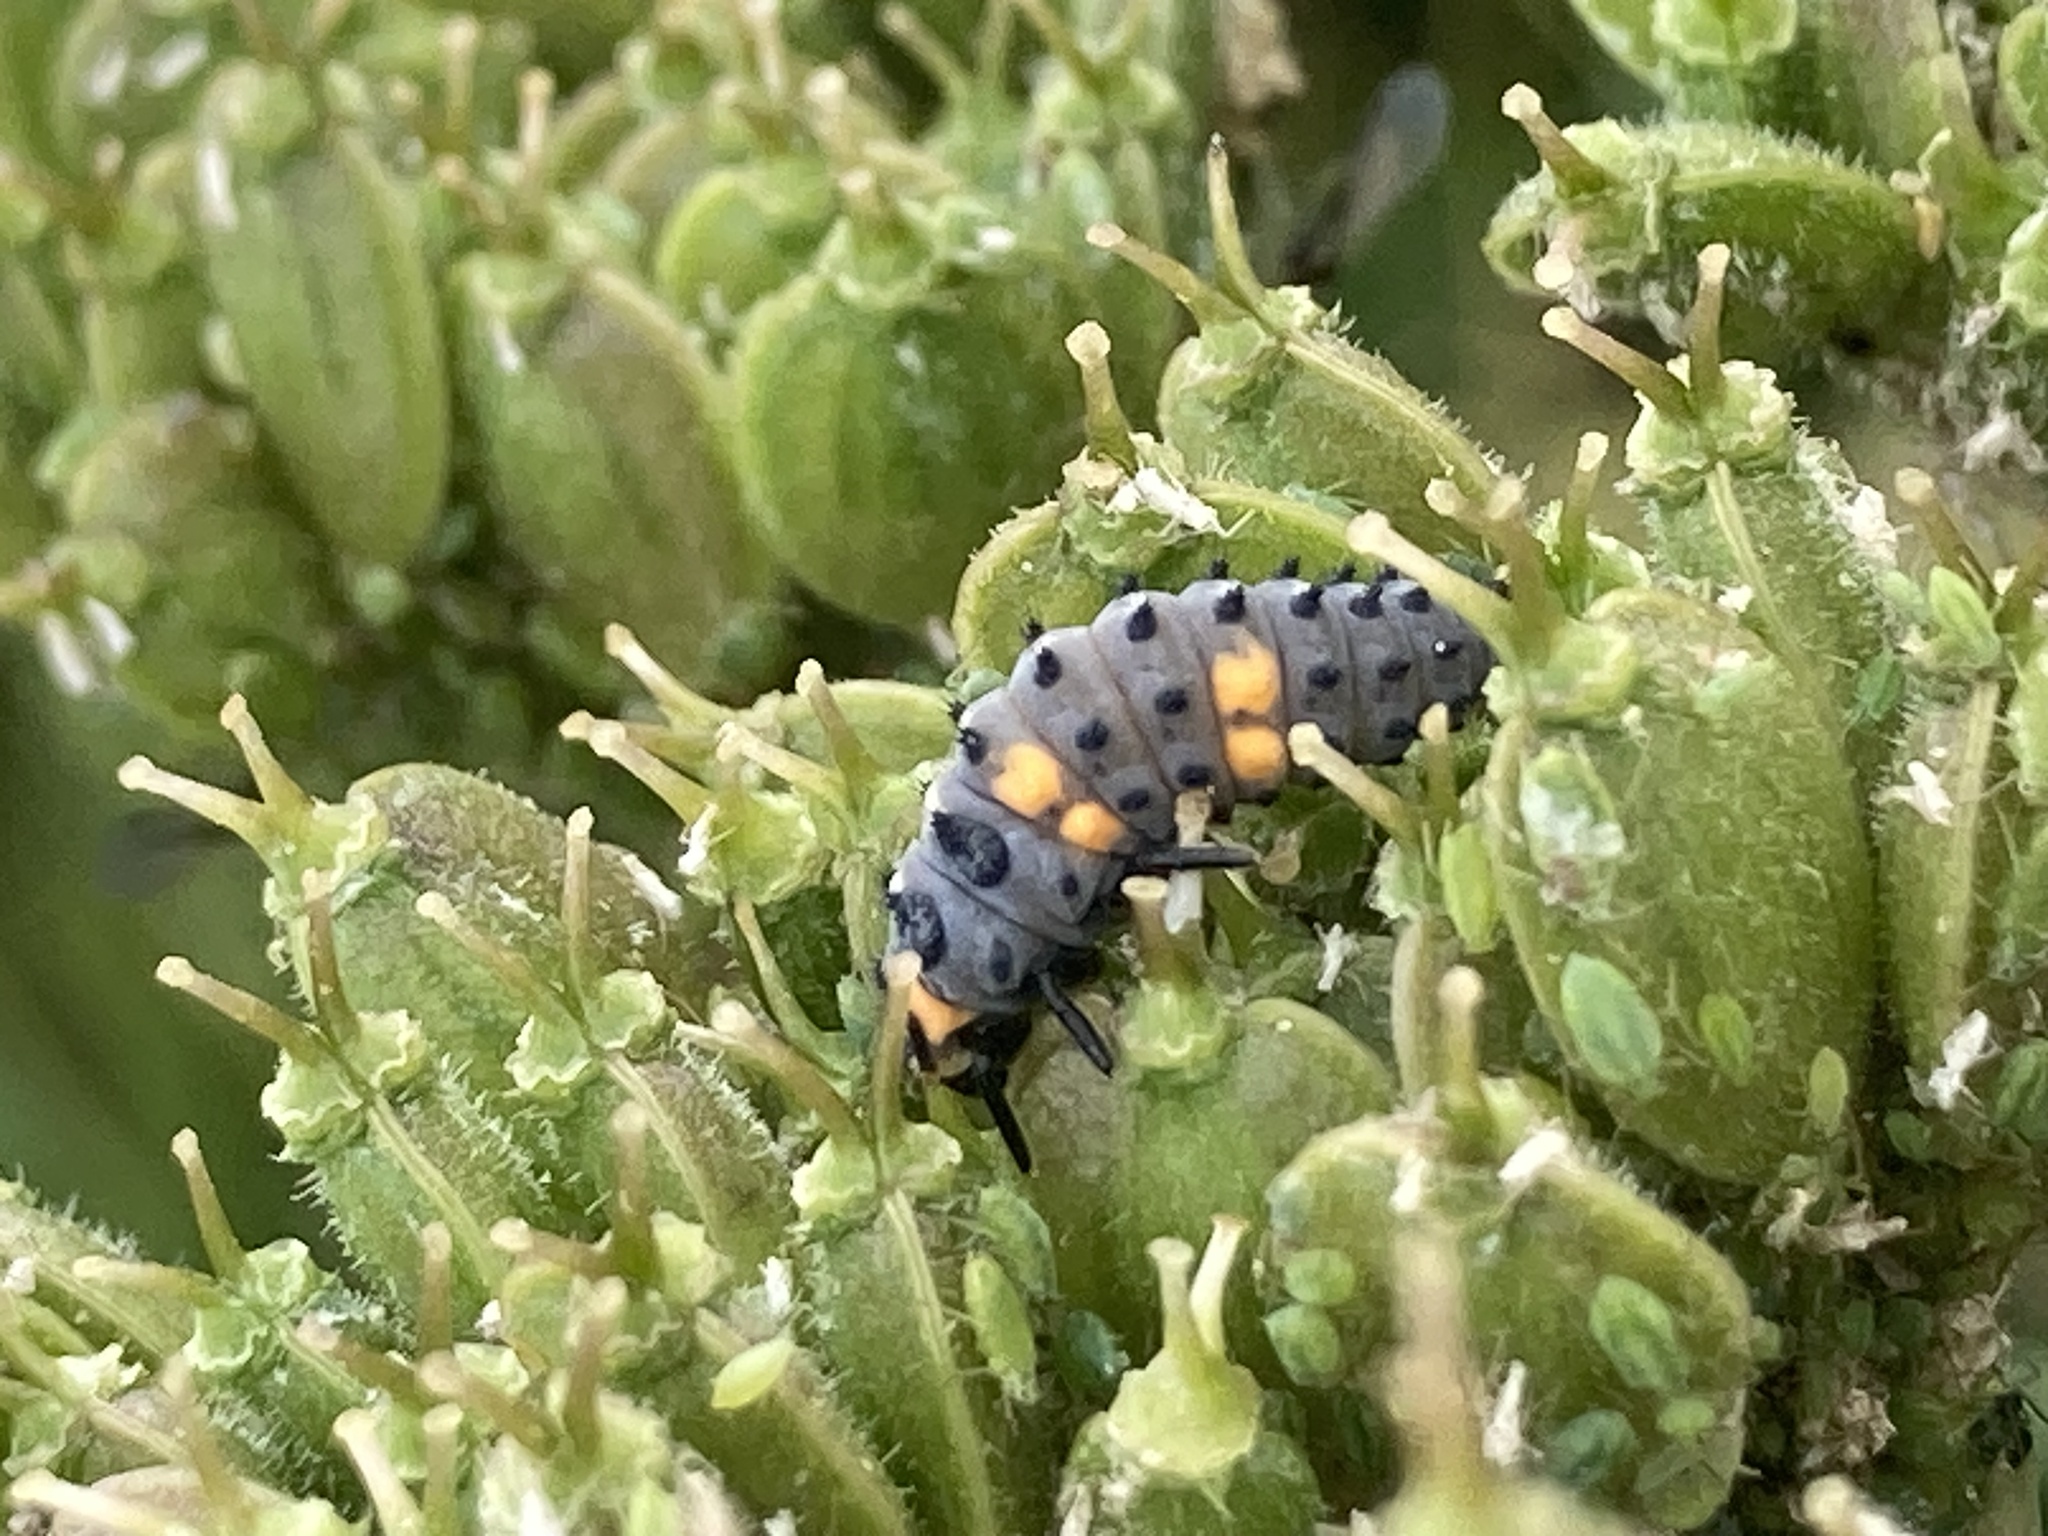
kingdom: Animalia
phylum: Arthropoda
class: Insecta
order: Coleoptera
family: Coccinellidae
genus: Coccinella
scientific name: Coccinella septempunctata
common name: Sevenspotted lady beetle
